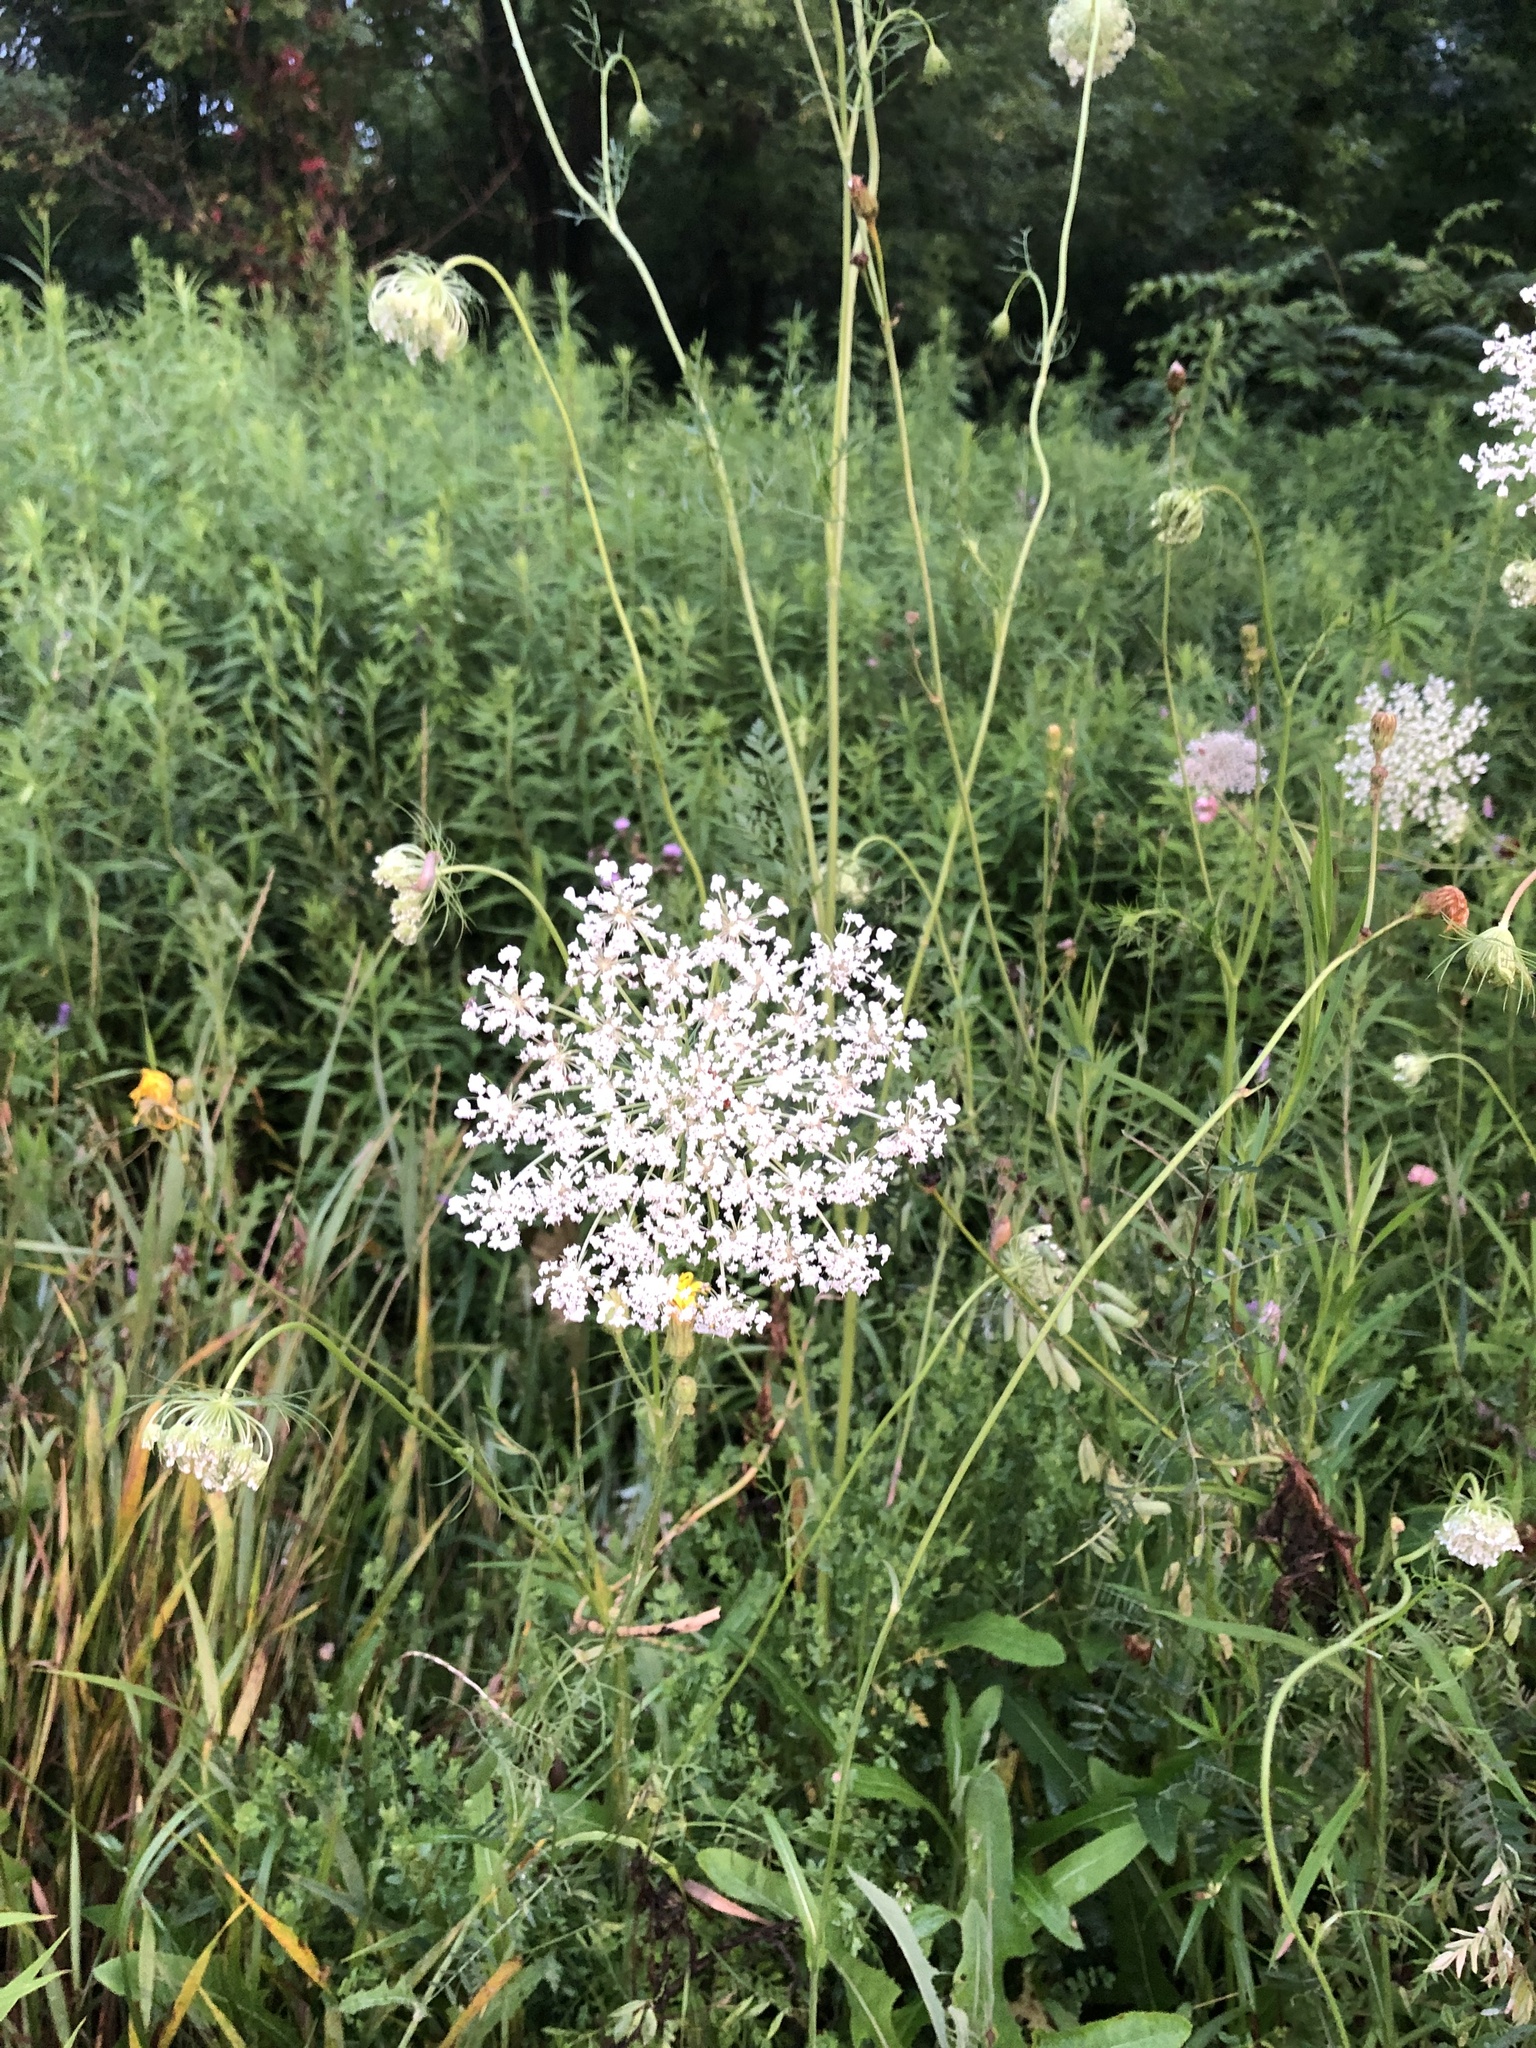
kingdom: Plantae
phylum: Tracheophyta
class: Magnoliopsida
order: Apiales
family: Apiaceae
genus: Daucus
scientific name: Daucus carota
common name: Wild carrot
